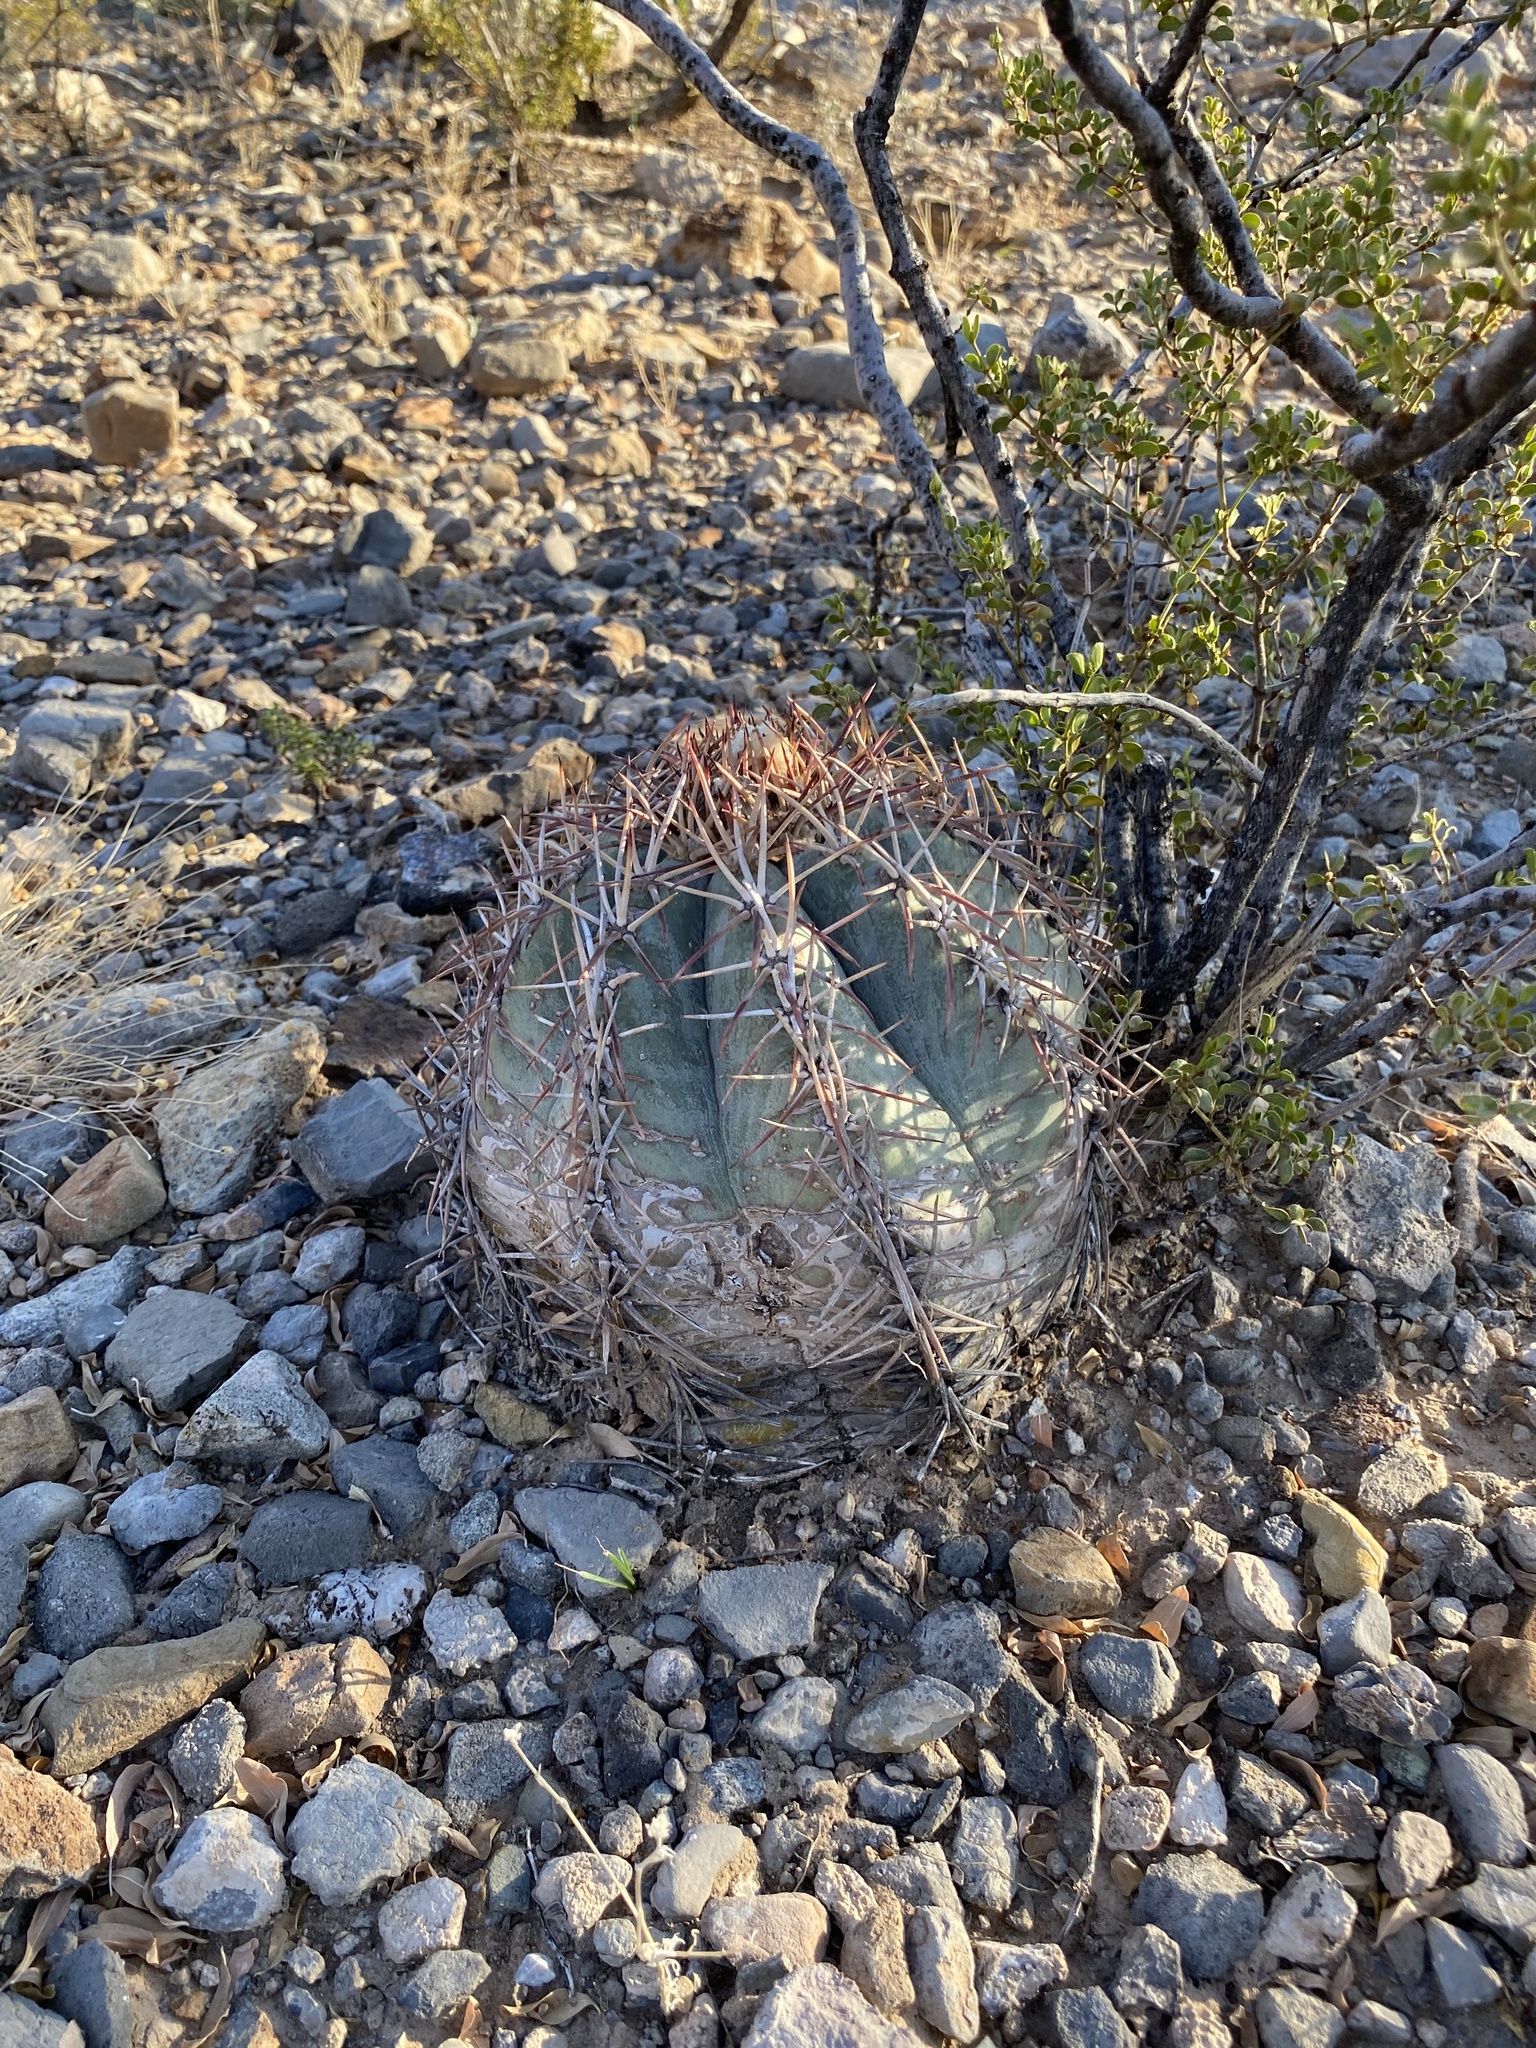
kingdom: Plantae
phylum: Tracheophyta
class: Magnoliopsida
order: Caryophyllales
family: Cactaceae
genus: Echinocactus
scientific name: Echinocactus horizonthalonius
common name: Devilshead
